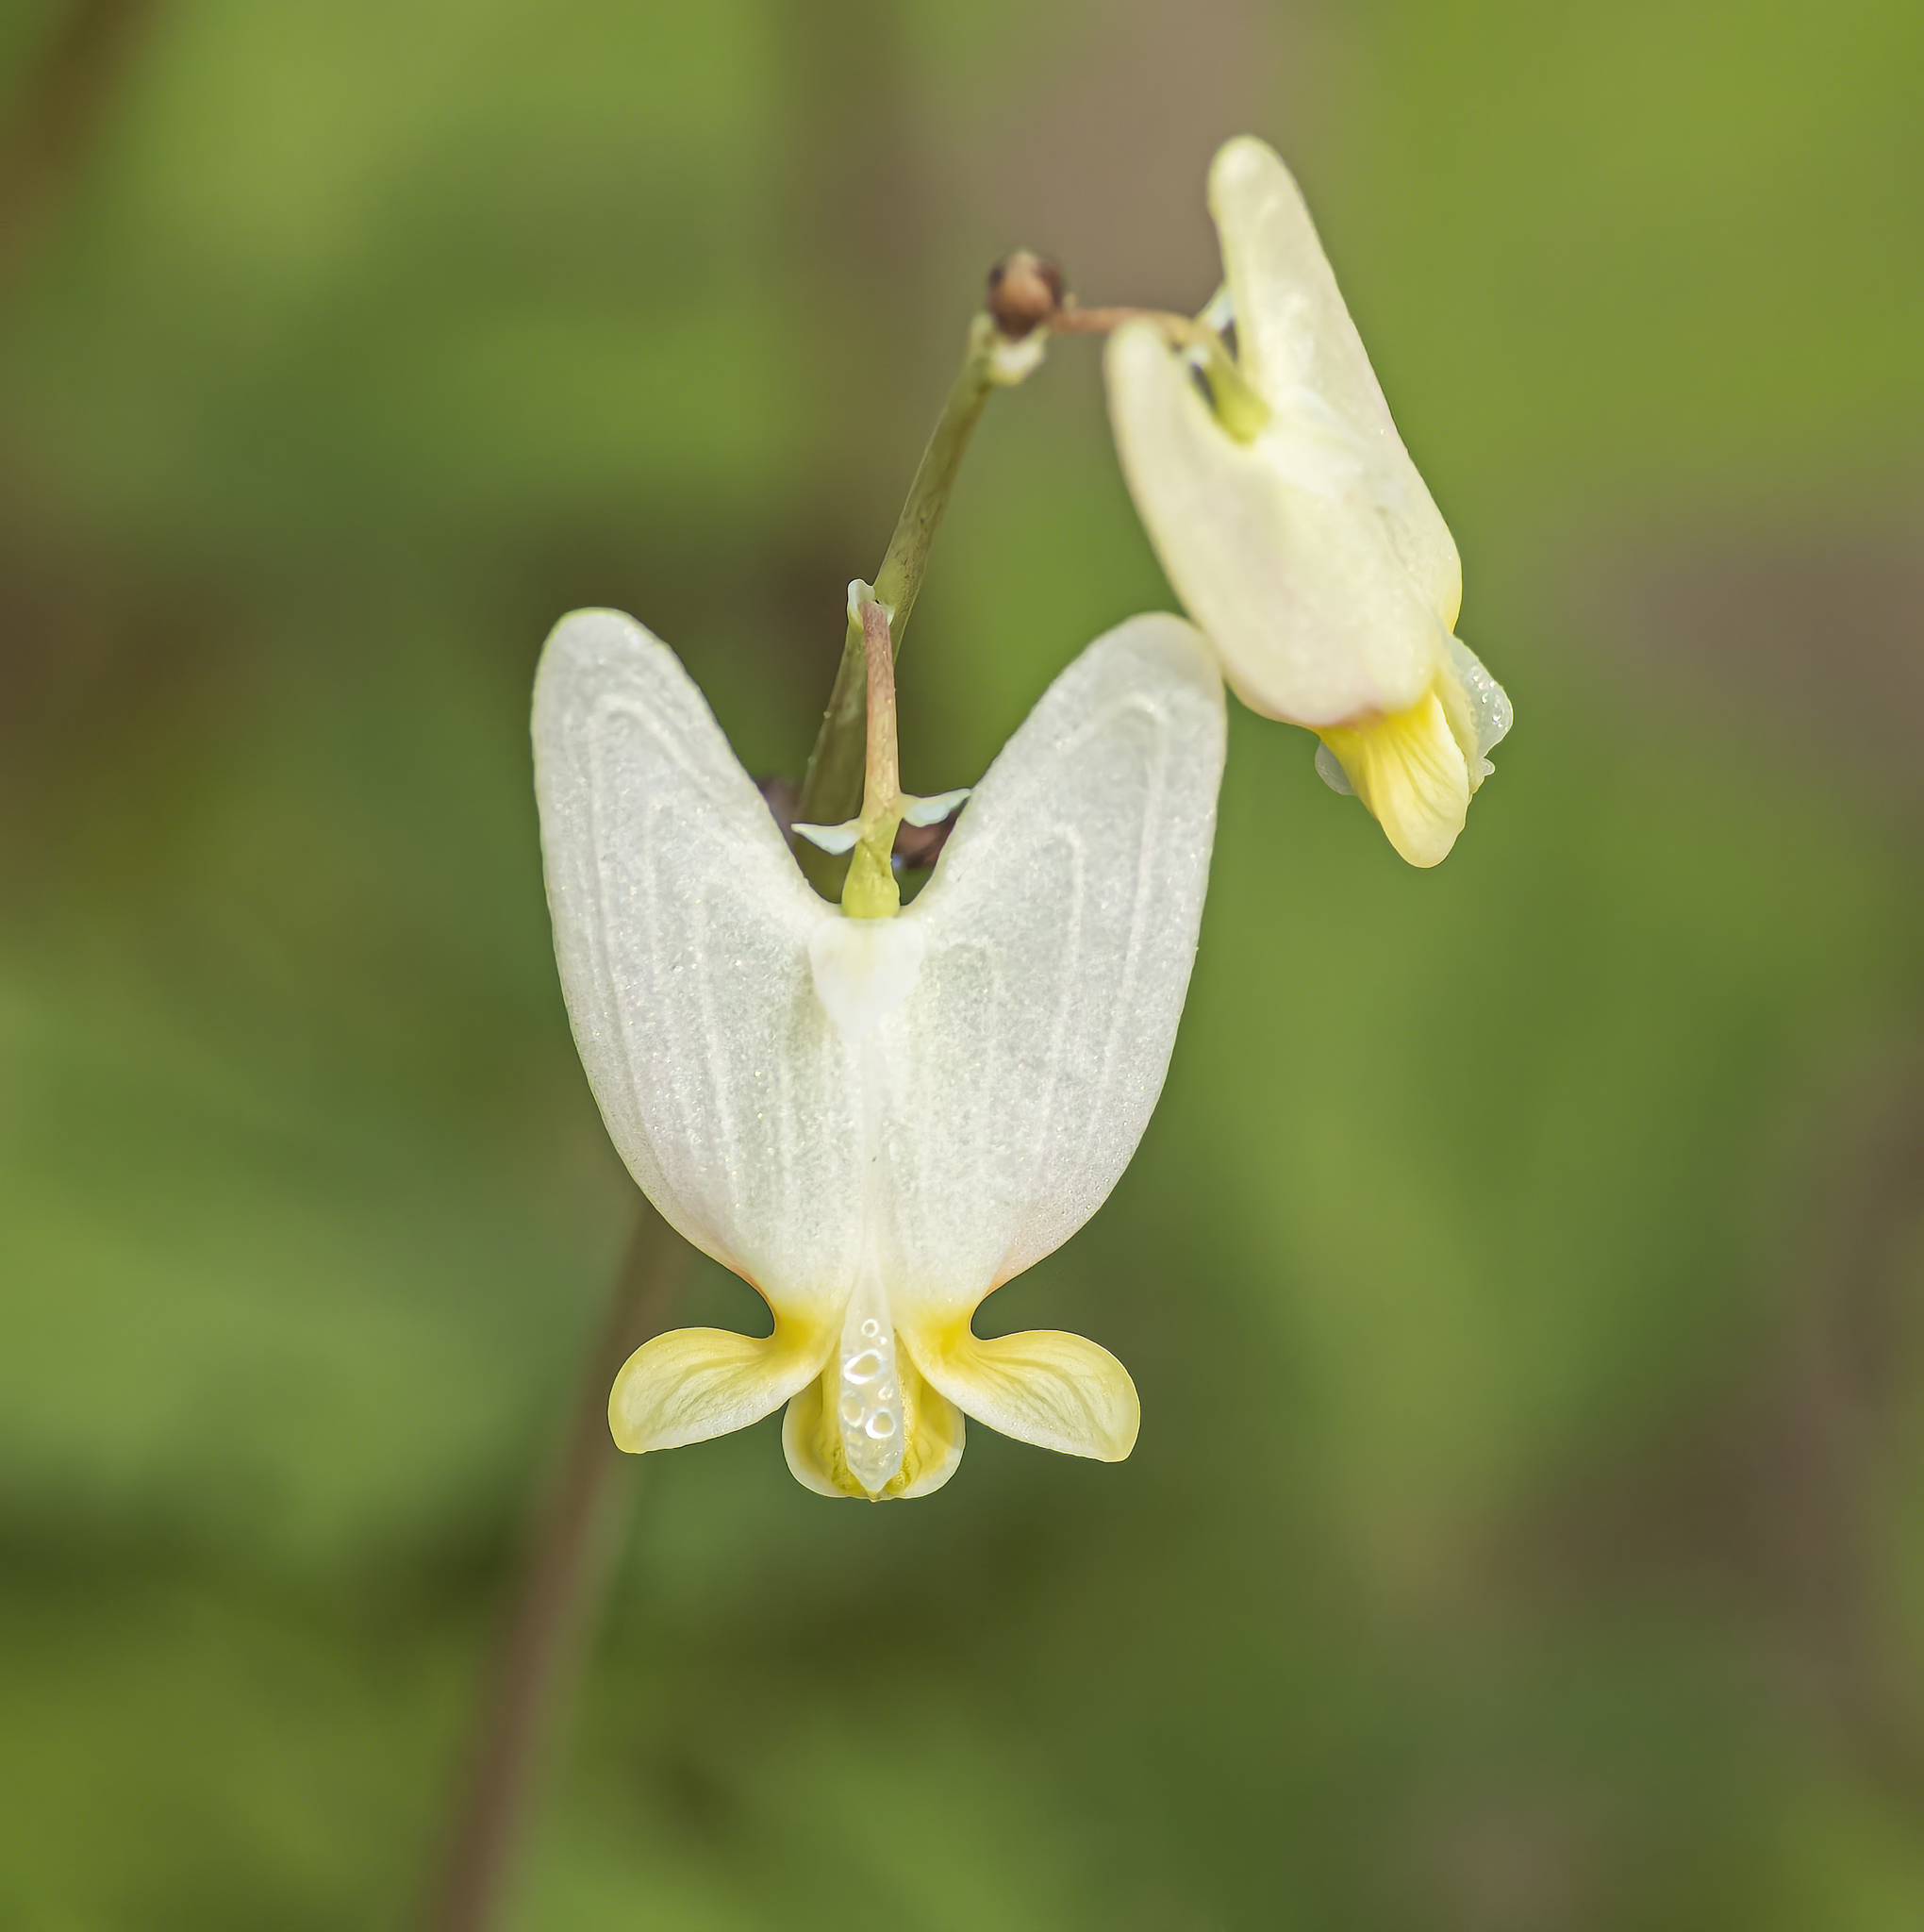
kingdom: Plantae
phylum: Tracheophyta
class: Magnoliopsida
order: Ranunculales
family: Papaveraceae
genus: Dicentra
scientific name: Dicentra cucullaria
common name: Dutchman's breeches
